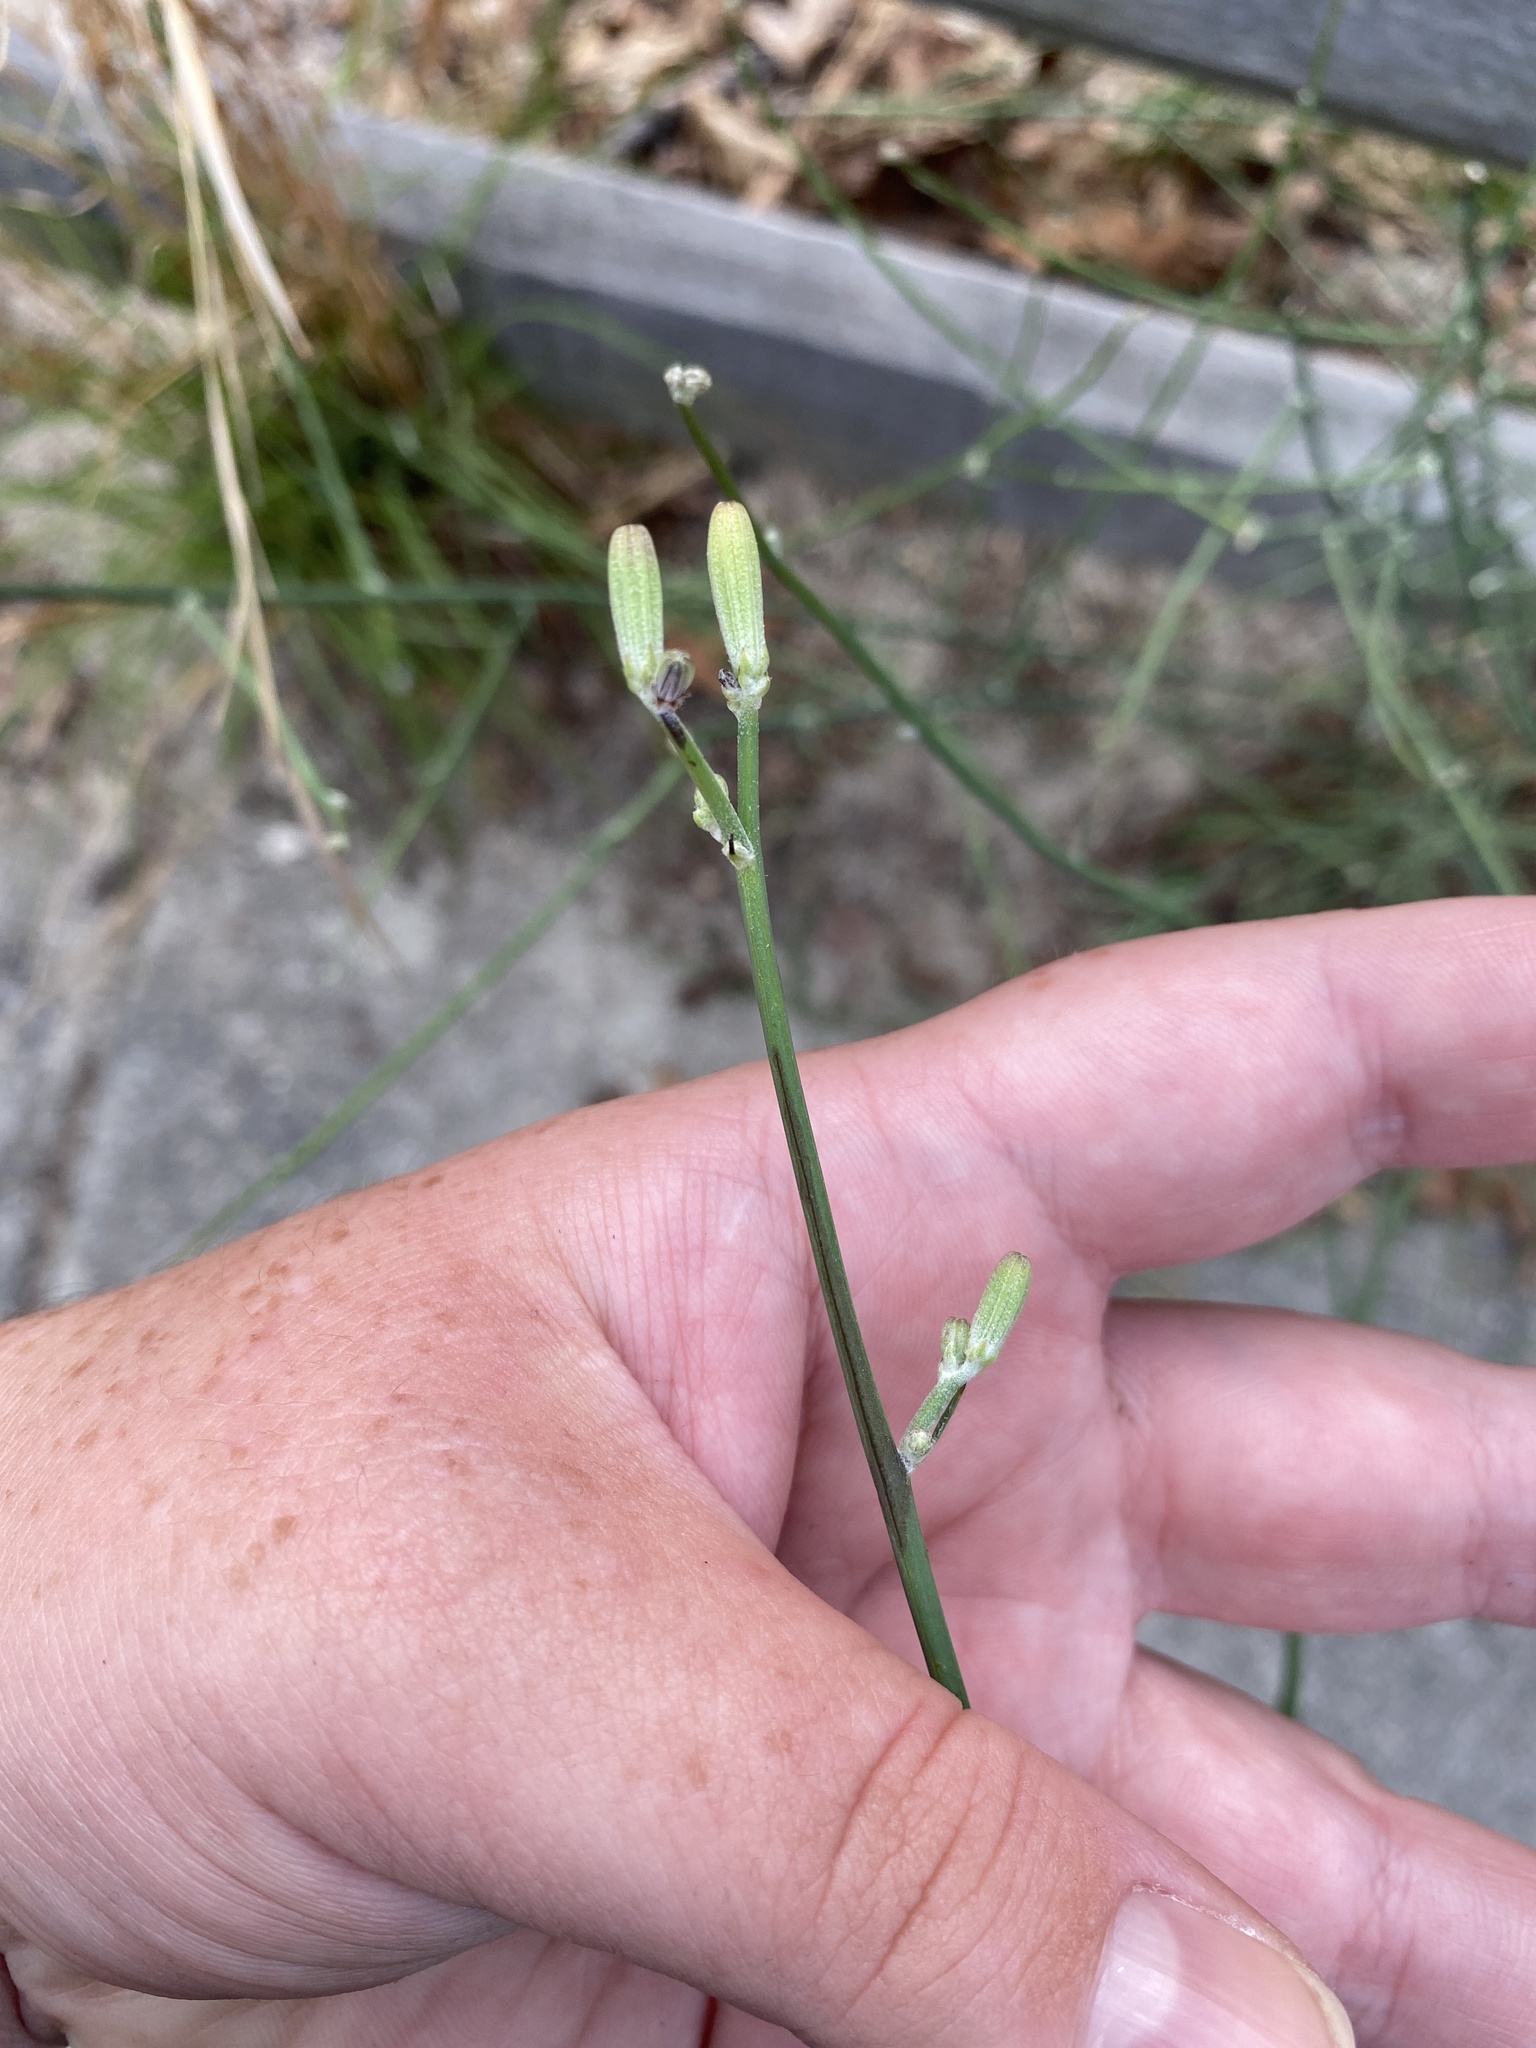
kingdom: Plantae
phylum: Tracheophyta
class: Magnoliopsida
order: Asterales
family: Asteraceae
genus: Chondrilla
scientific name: Chondrilla juncea
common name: Skeleton weed
